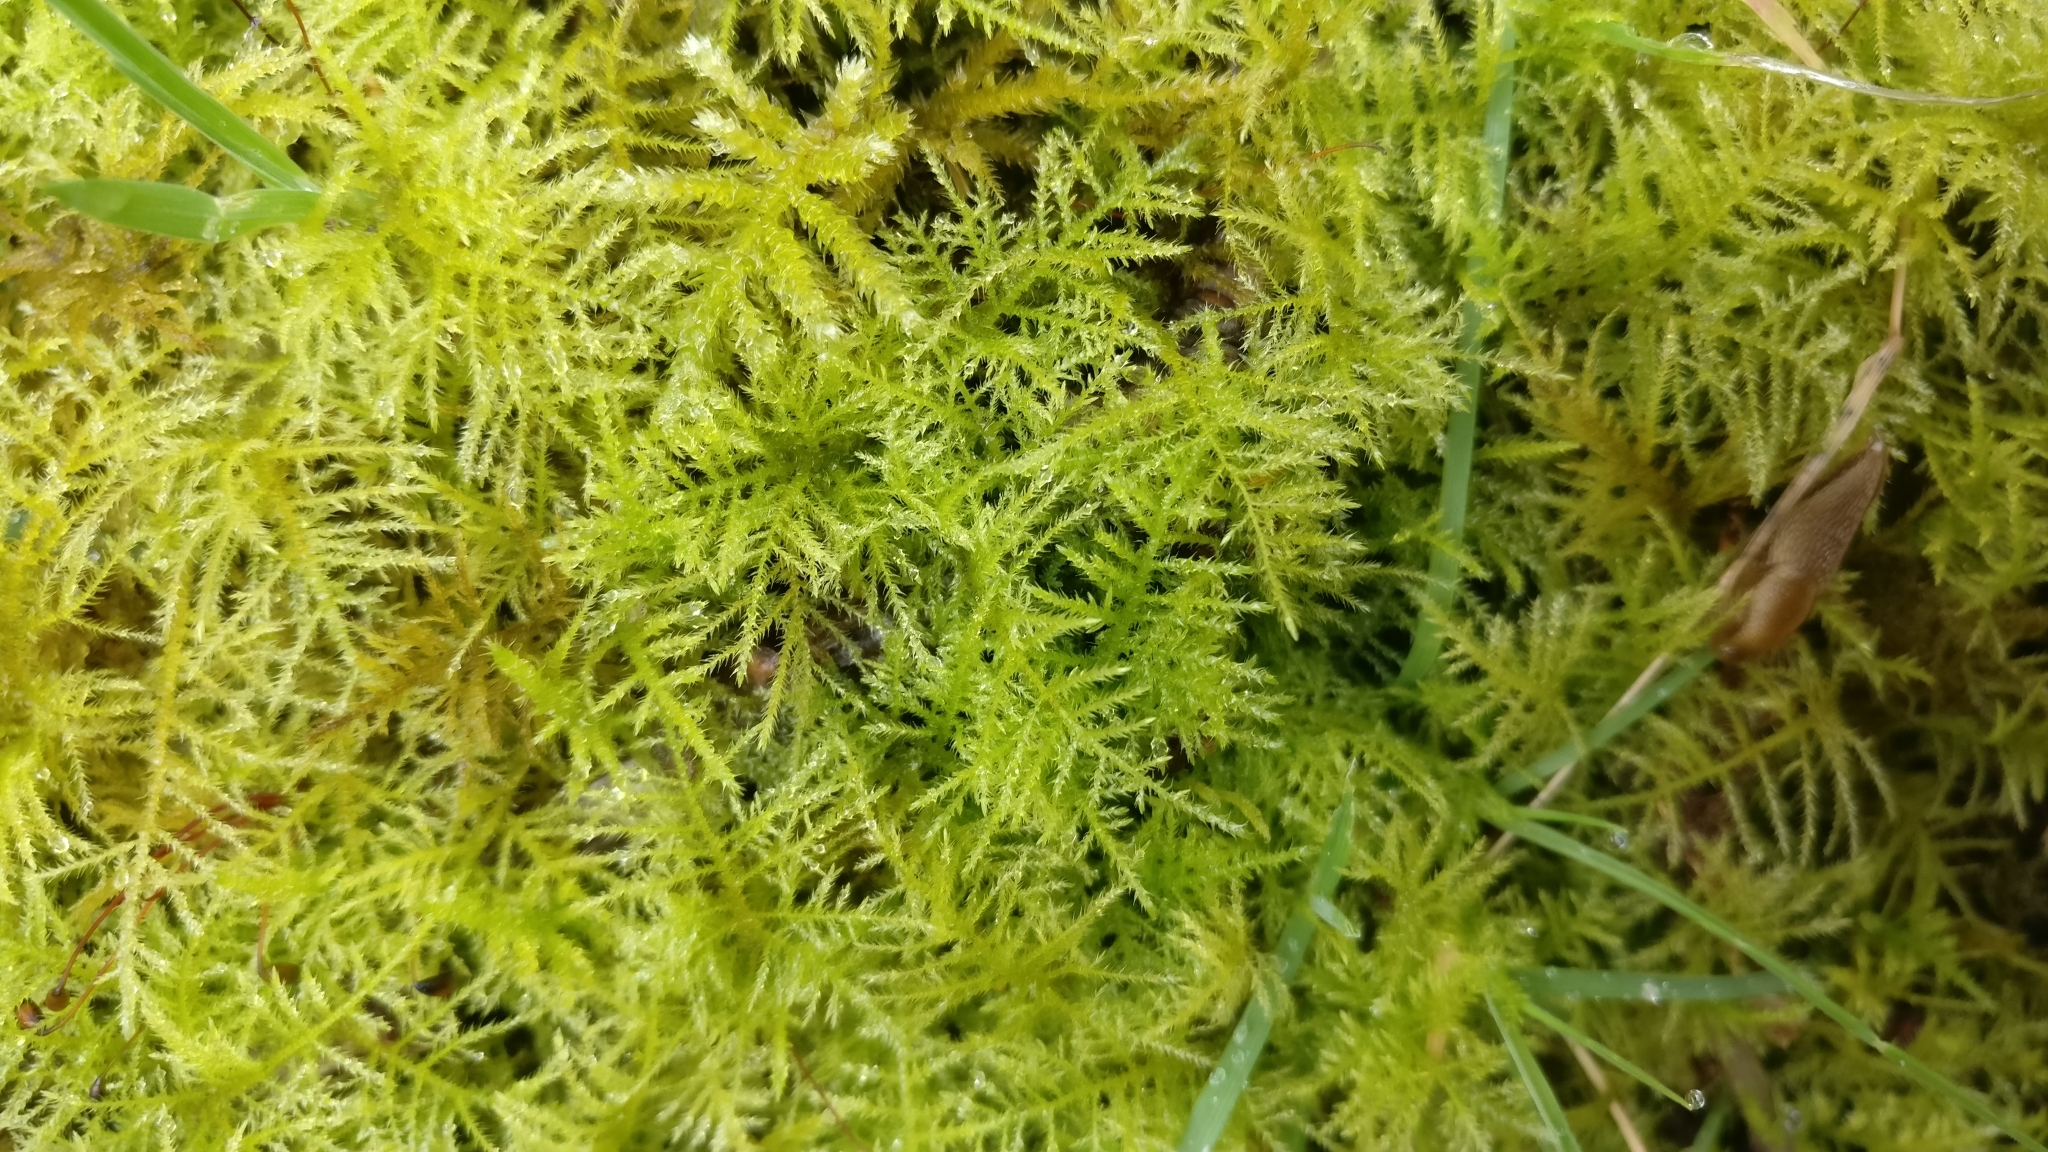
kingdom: Plantae
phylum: Bryophyta
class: Bryopsida
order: Hypnales
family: Brachytheciaceae
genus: Kindbergia
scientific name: Kindbergia praelonga
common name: Slender beaked moss
